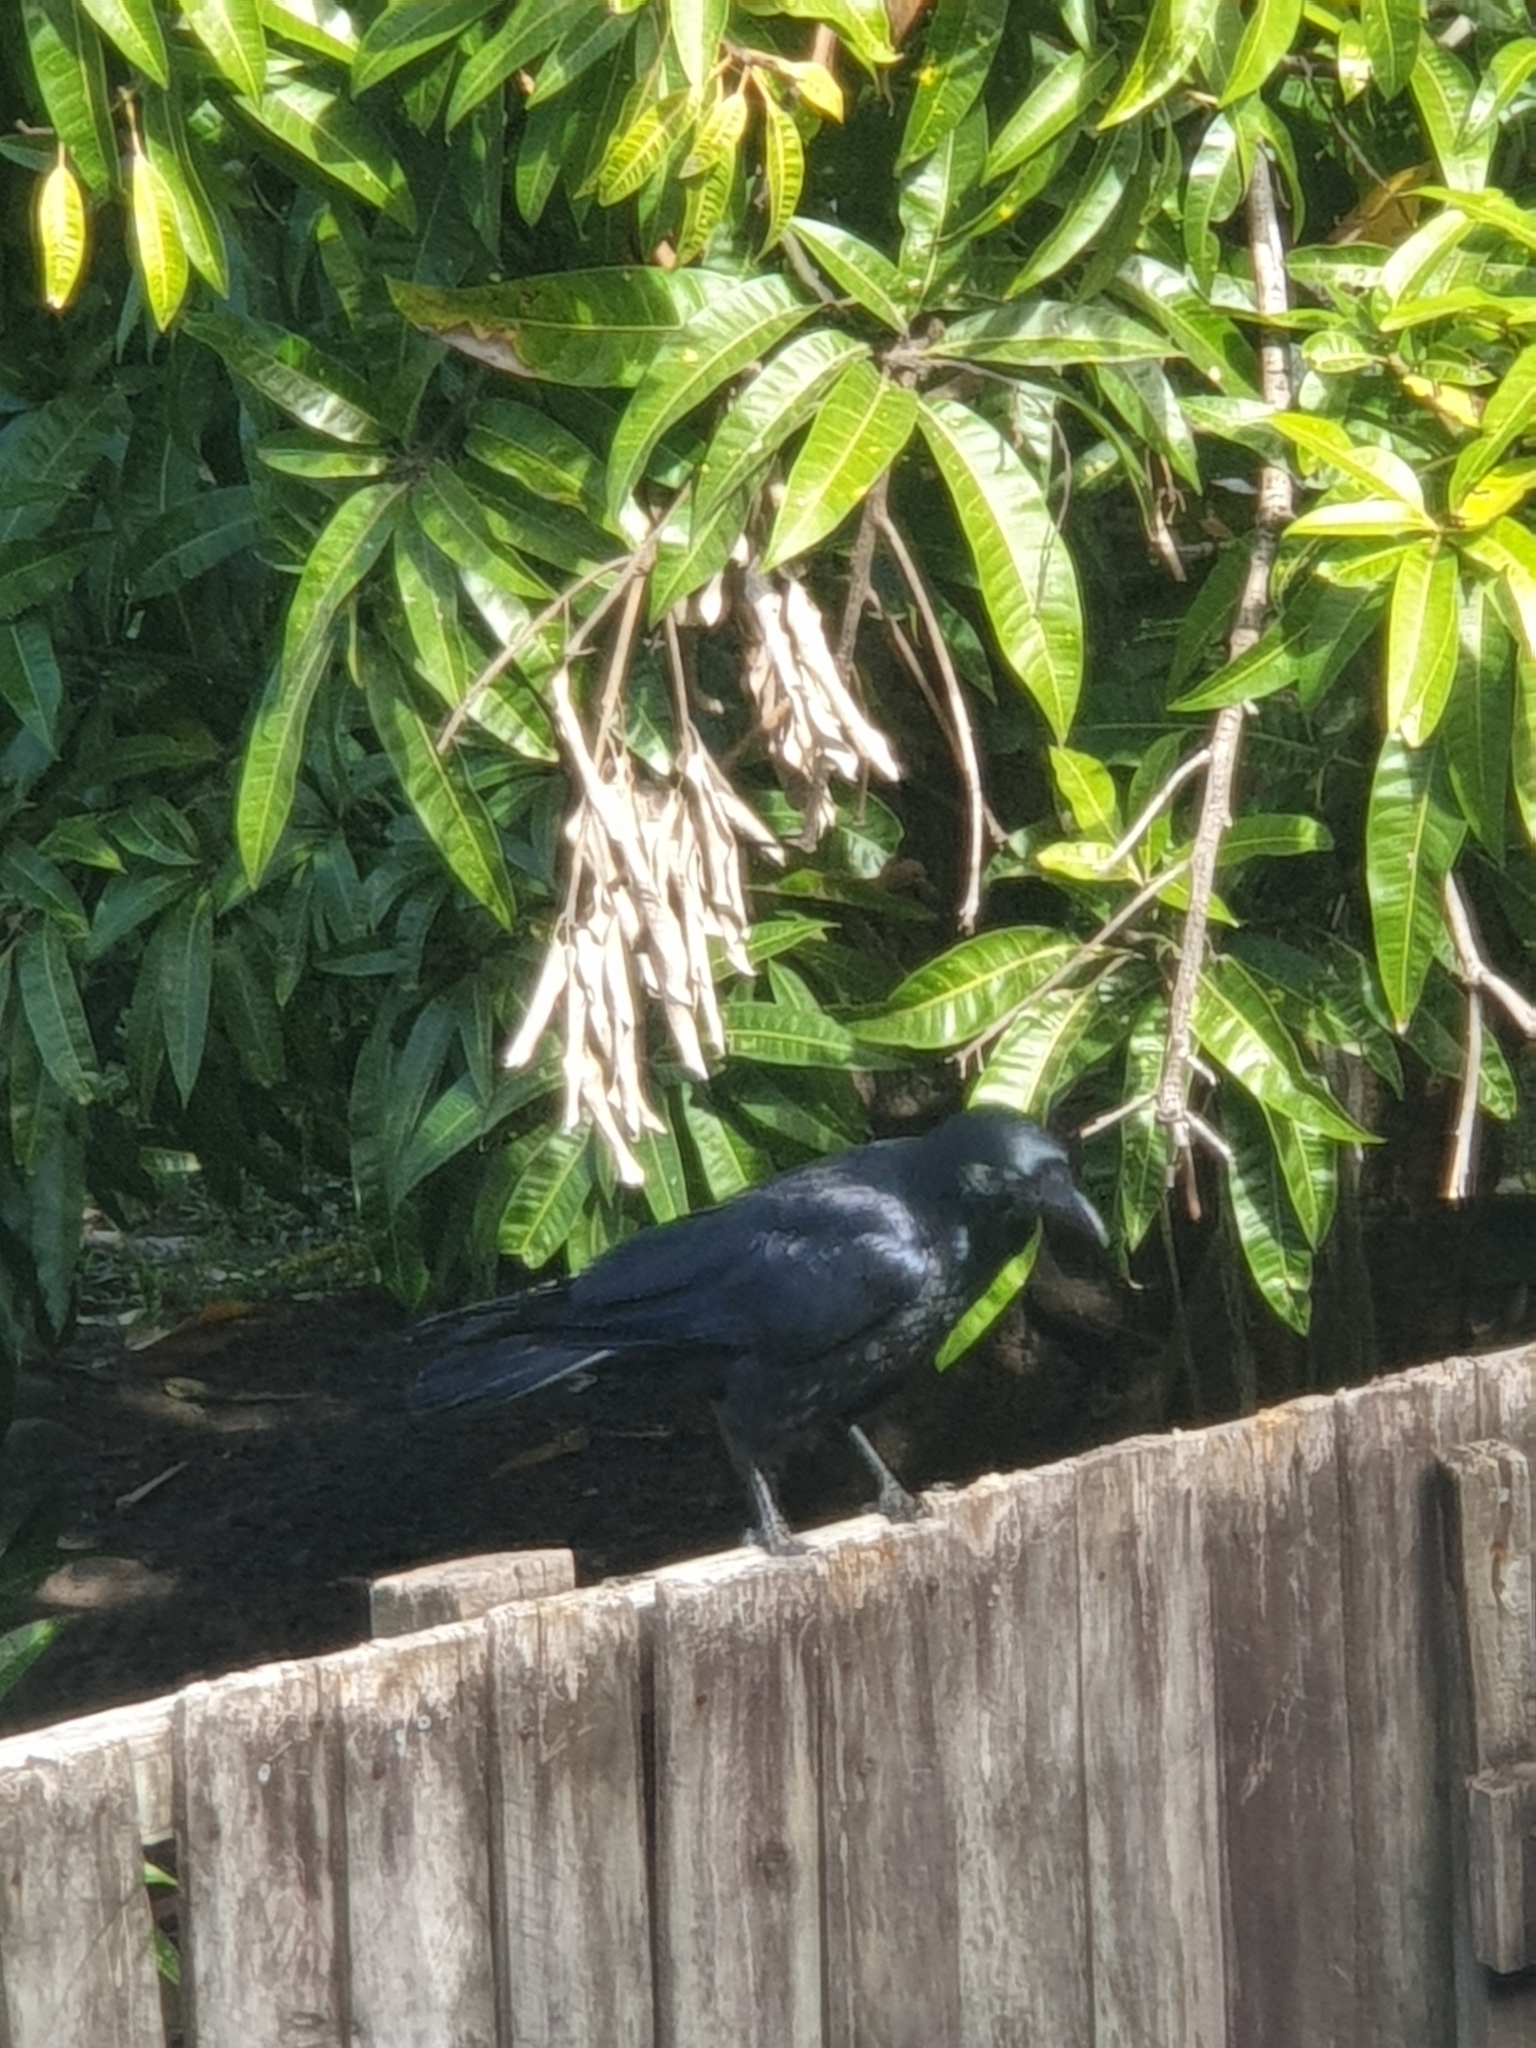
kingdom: Animalia
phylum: Chordata
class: Aves
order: Passeriformes
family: Corvidae
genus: Corvus
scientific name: Corvus orru
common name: Torresian crow
